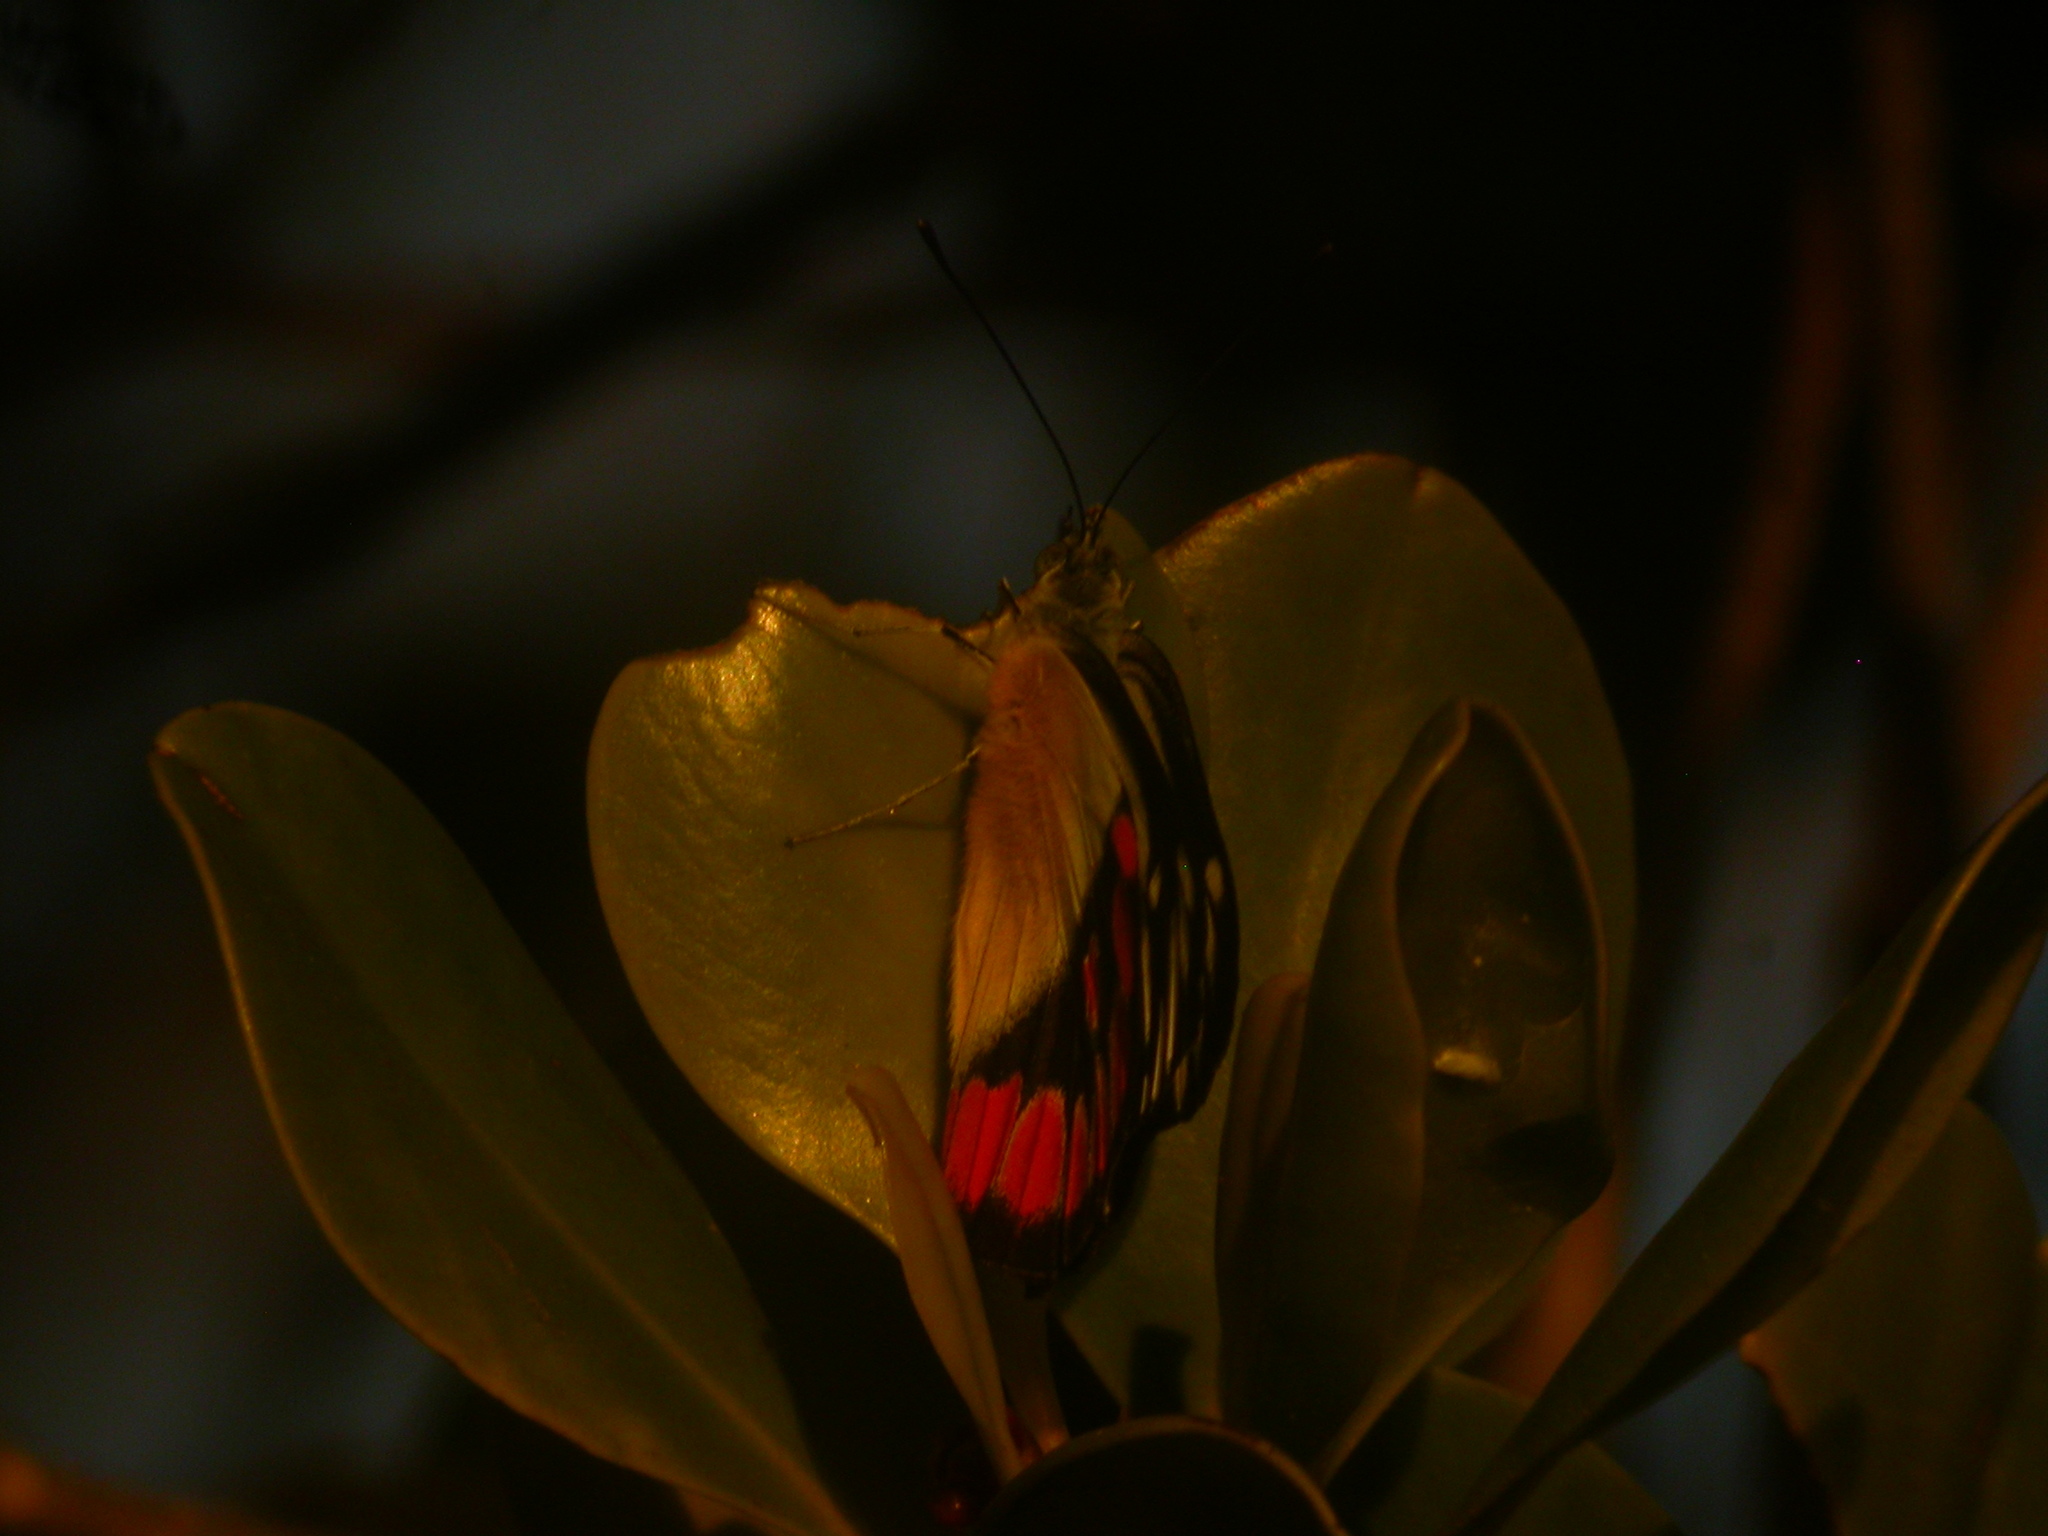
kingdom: Animalia
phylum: Arthropoda
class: Insecta
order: Lepidoptera
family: Pieridae
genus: Delias
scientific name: Delias argenthona
